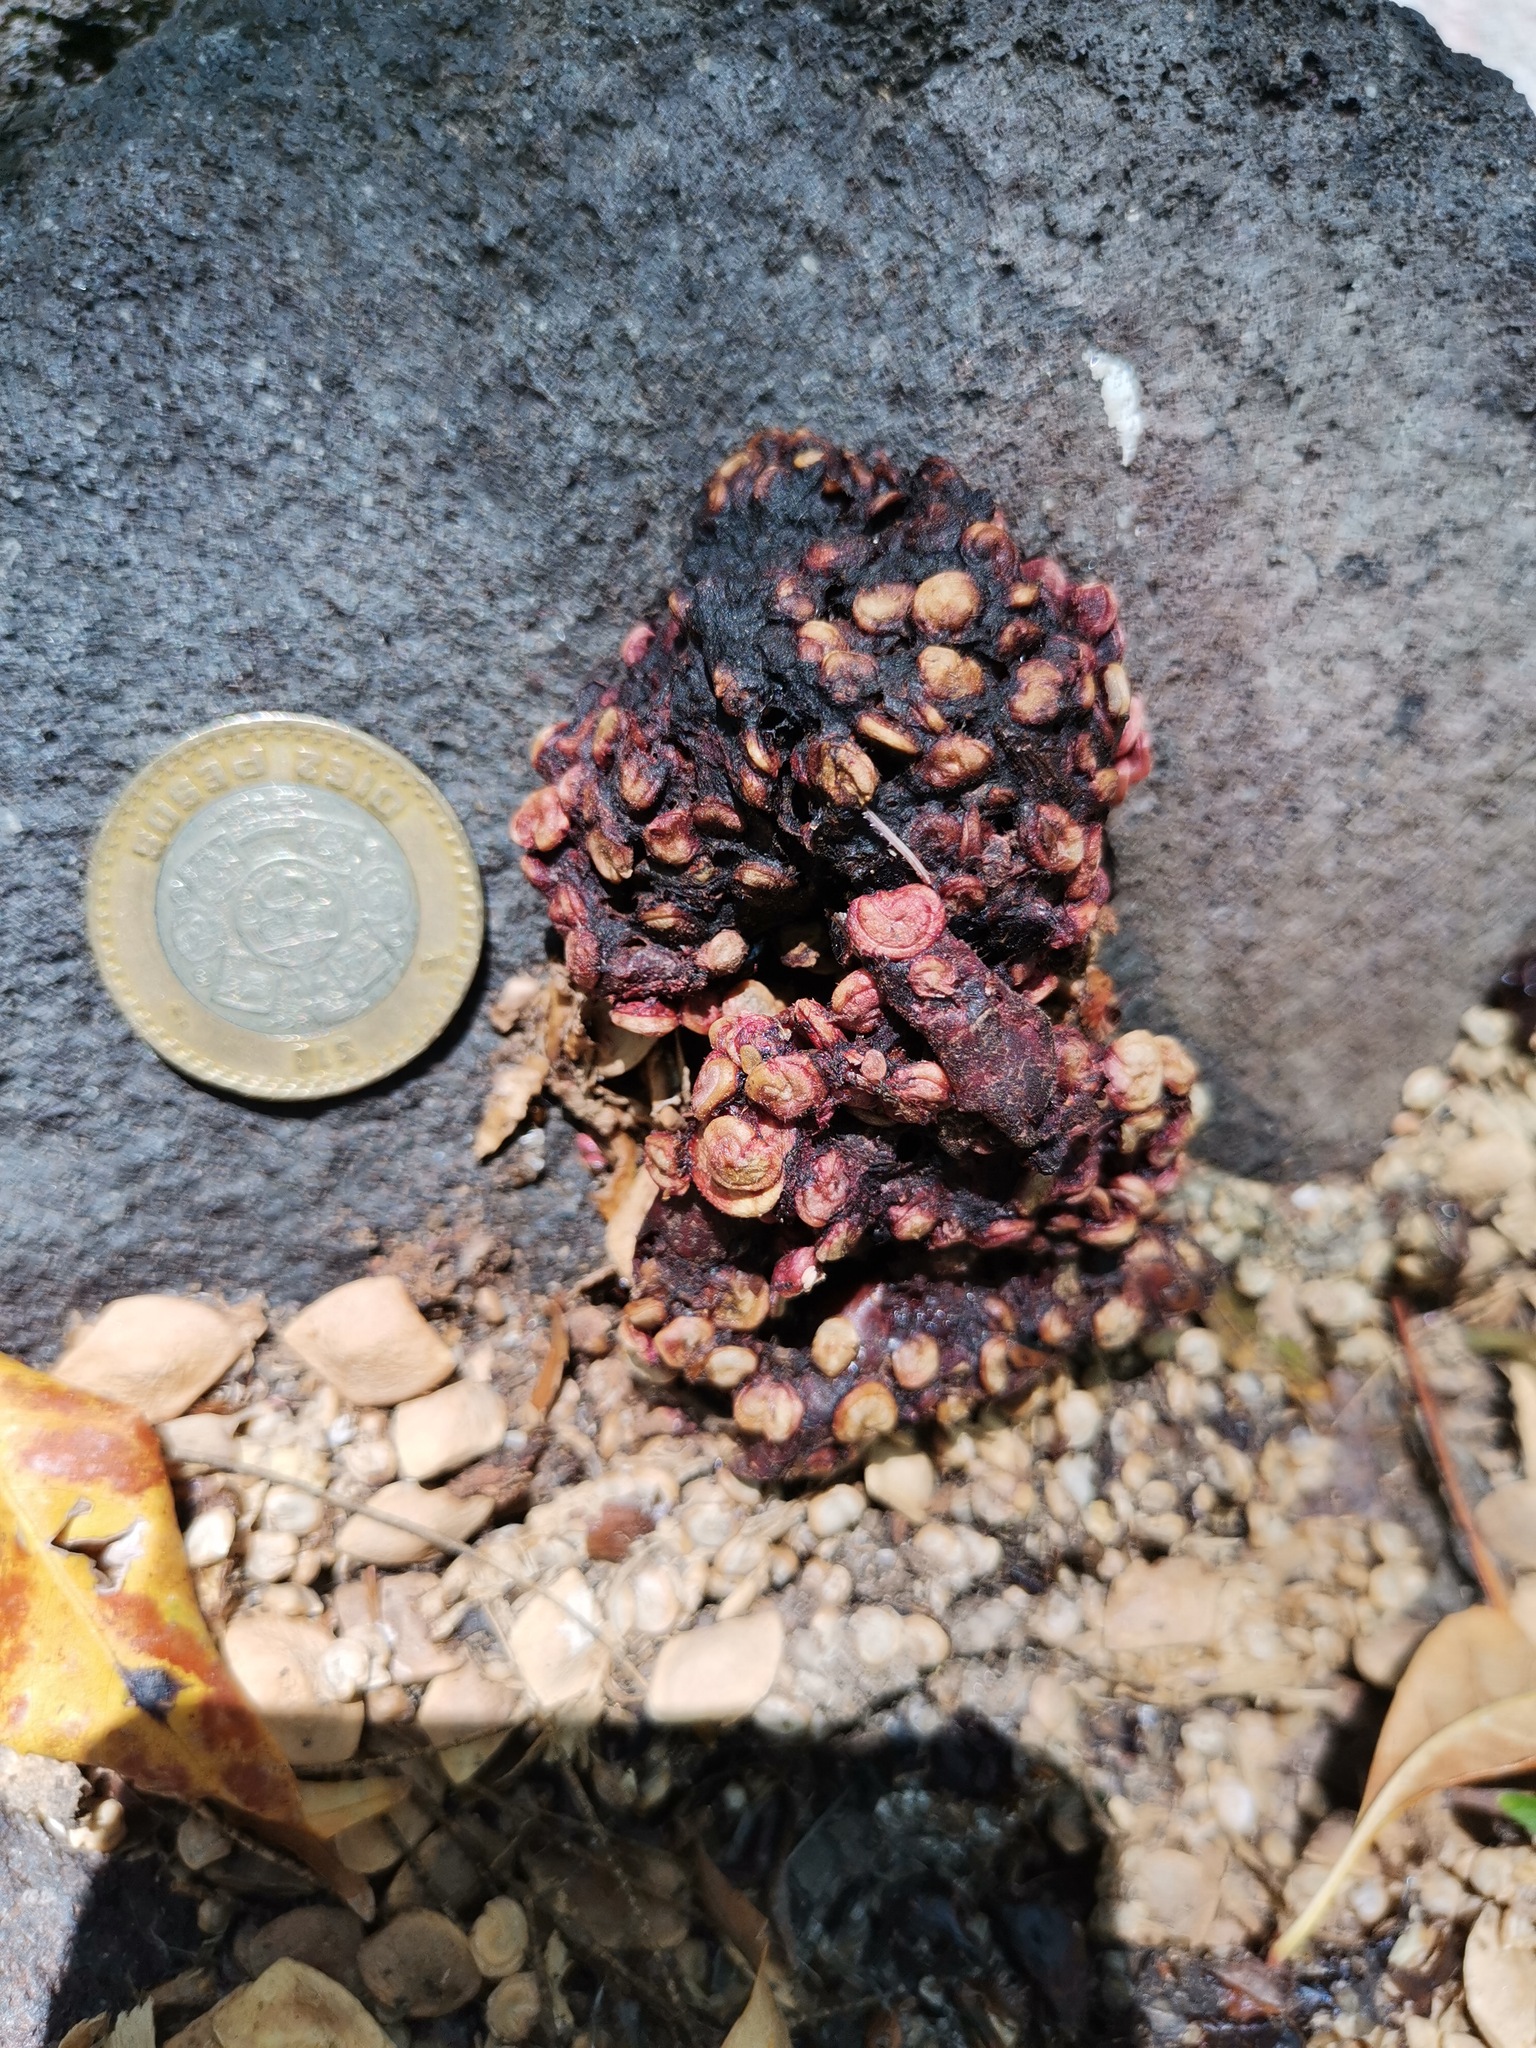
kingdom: Animalia
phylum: Chordata
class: Mammalia
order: Carnivora
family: Procyonidae
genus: Bassariscus
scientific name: Bassariscus astutus
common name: Ringtail
